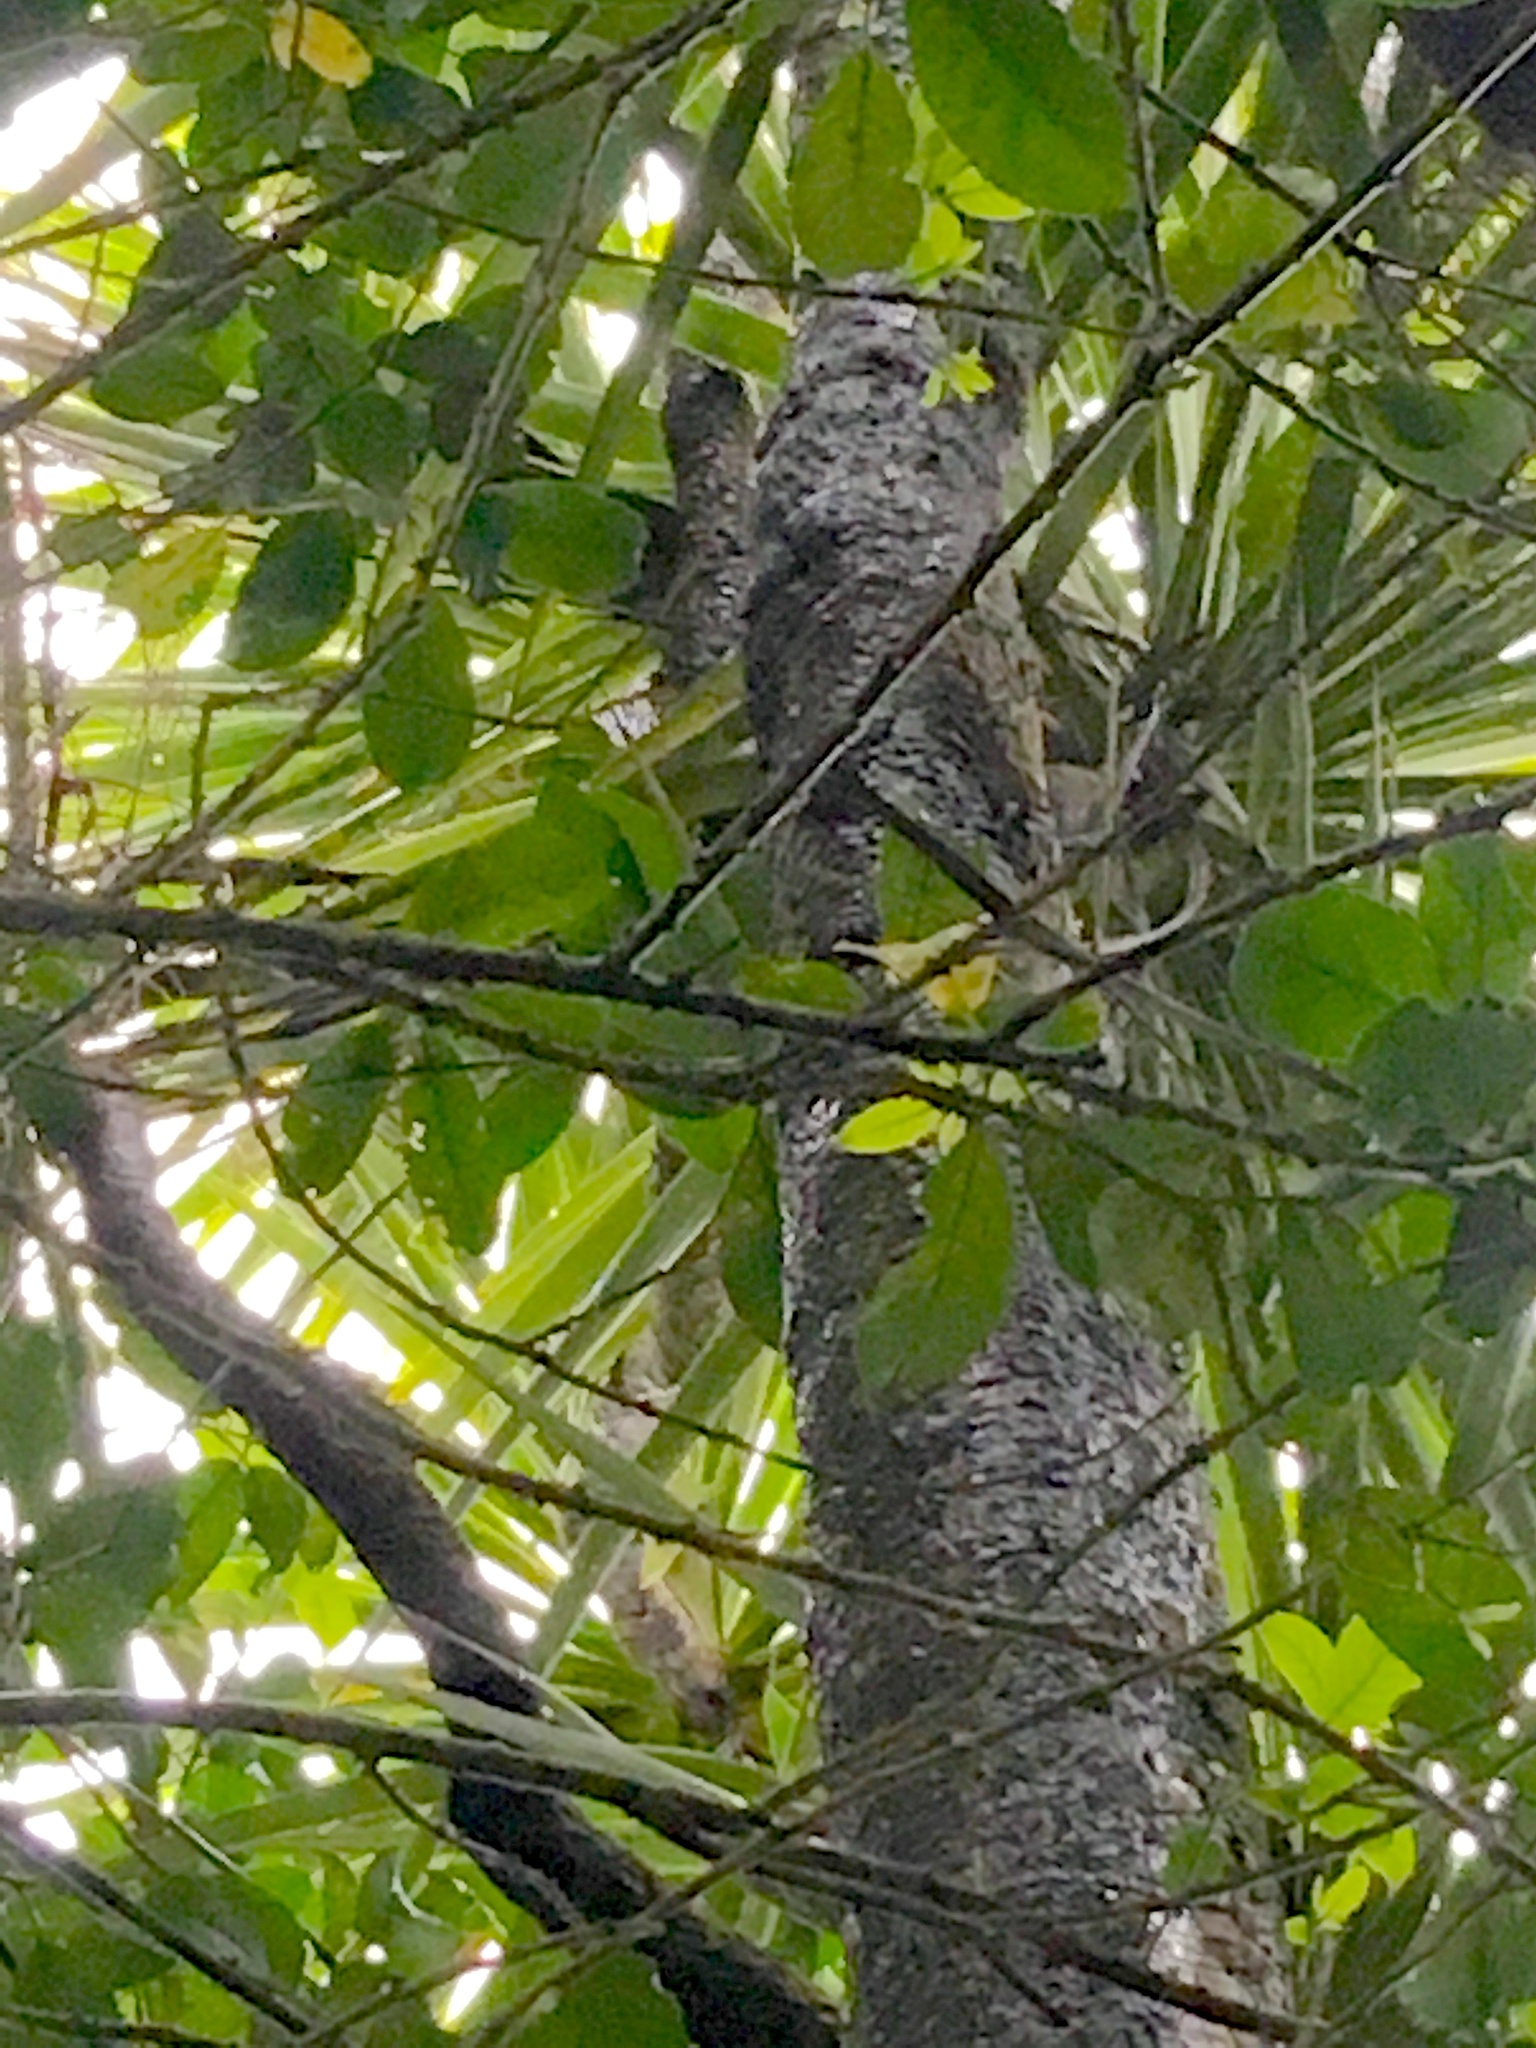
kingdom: Plantae
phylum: Tracheophyta
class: Liliopsida
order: Asparagales
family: Asparagaceae
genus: Cordyline
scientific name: Cordyline australis
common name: Cabbage-palm
